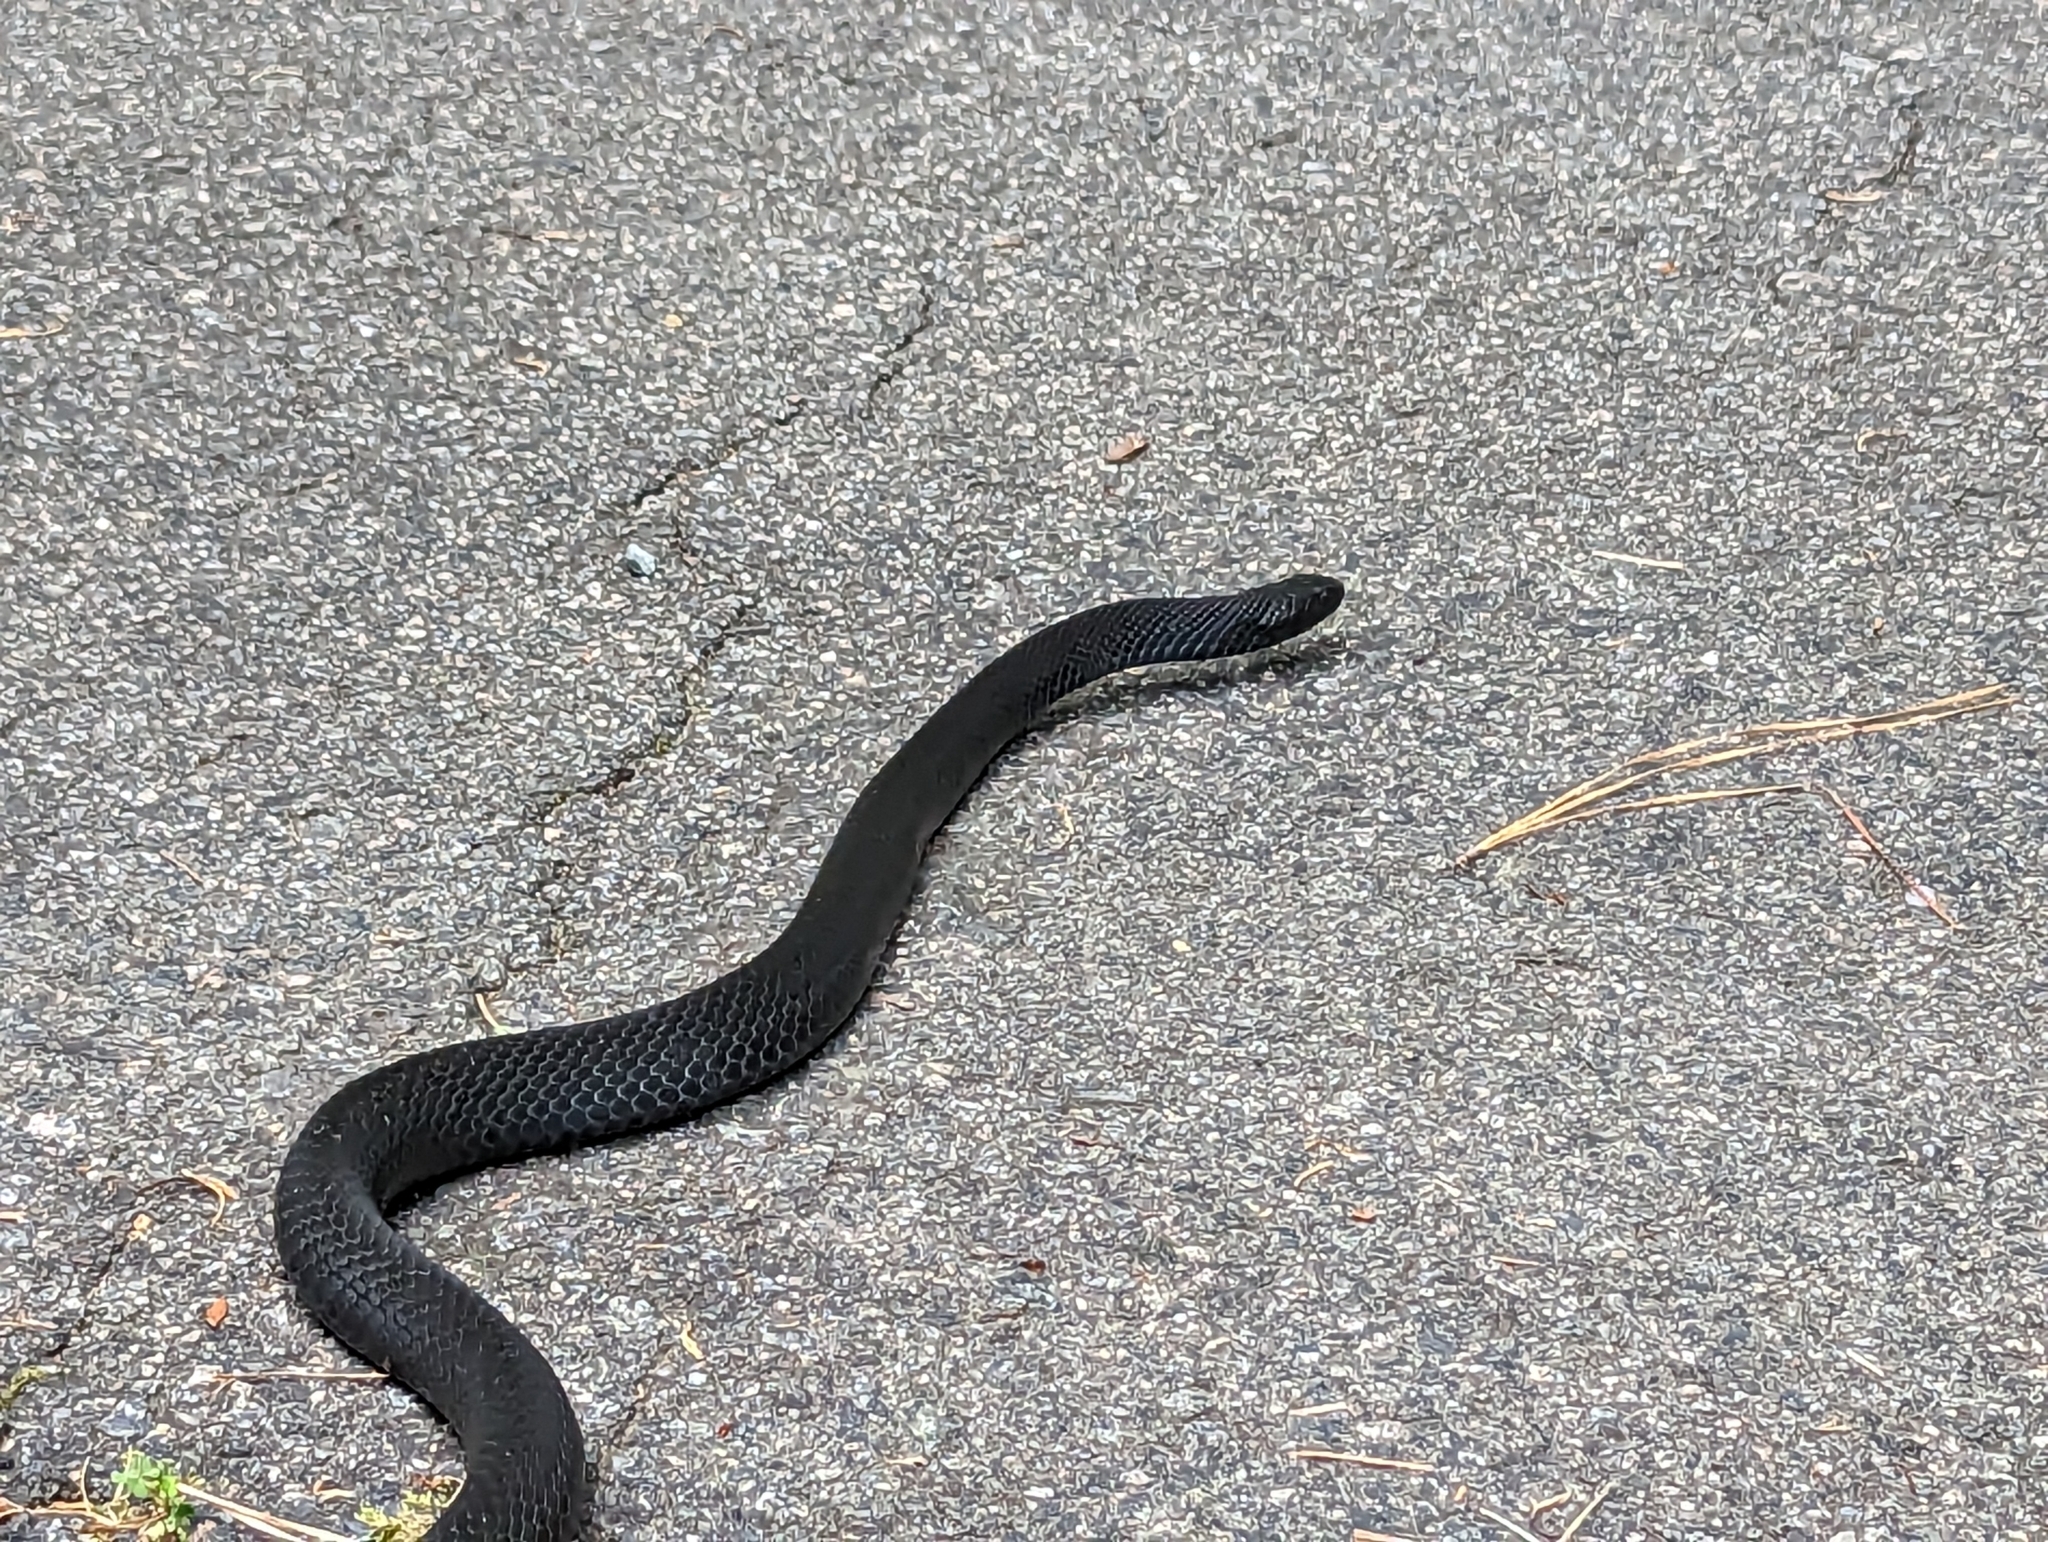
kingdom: Animalia
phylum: Chordata
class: Squamata
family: Colubridae
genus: Coluber
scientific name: Coluber constrictor
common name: Eastern racer
